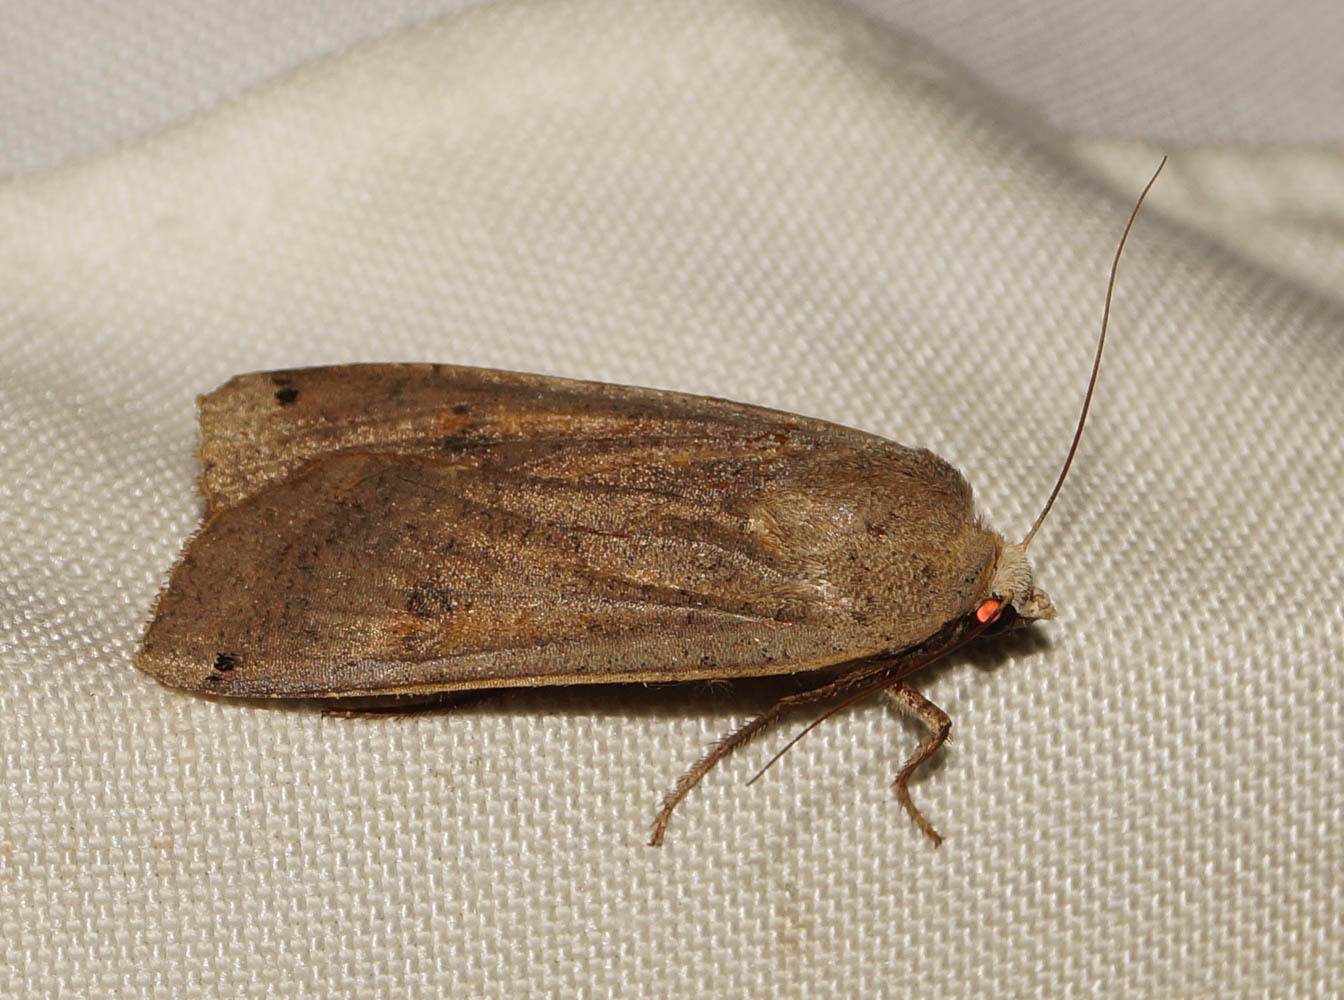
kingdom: Animalia
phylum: Arthropoda
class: Insecta
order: Lepidoptera
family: Noctuidae
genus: Noctua
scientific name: Noctua pronuba
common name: Large yellow underwing
